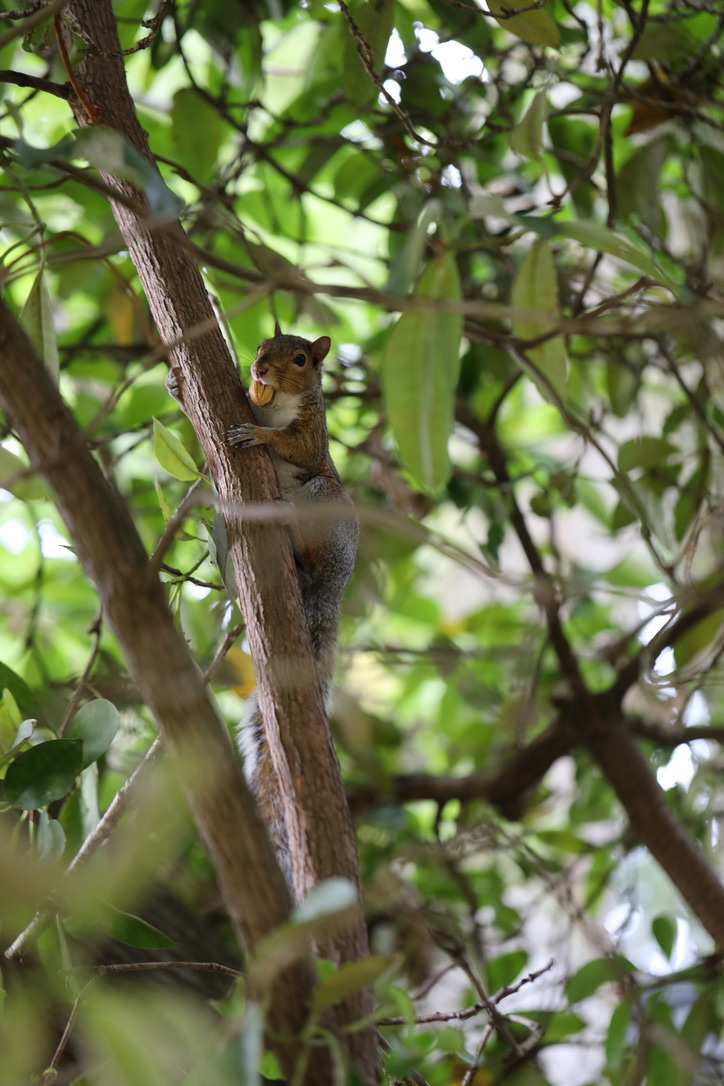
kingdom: Animalia
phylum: Chordata
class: Mammalia
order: Rodentia
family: Sciuridae
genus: Sciurus
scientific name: Sciurus carolinensis
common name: Eastern gray squirrel
